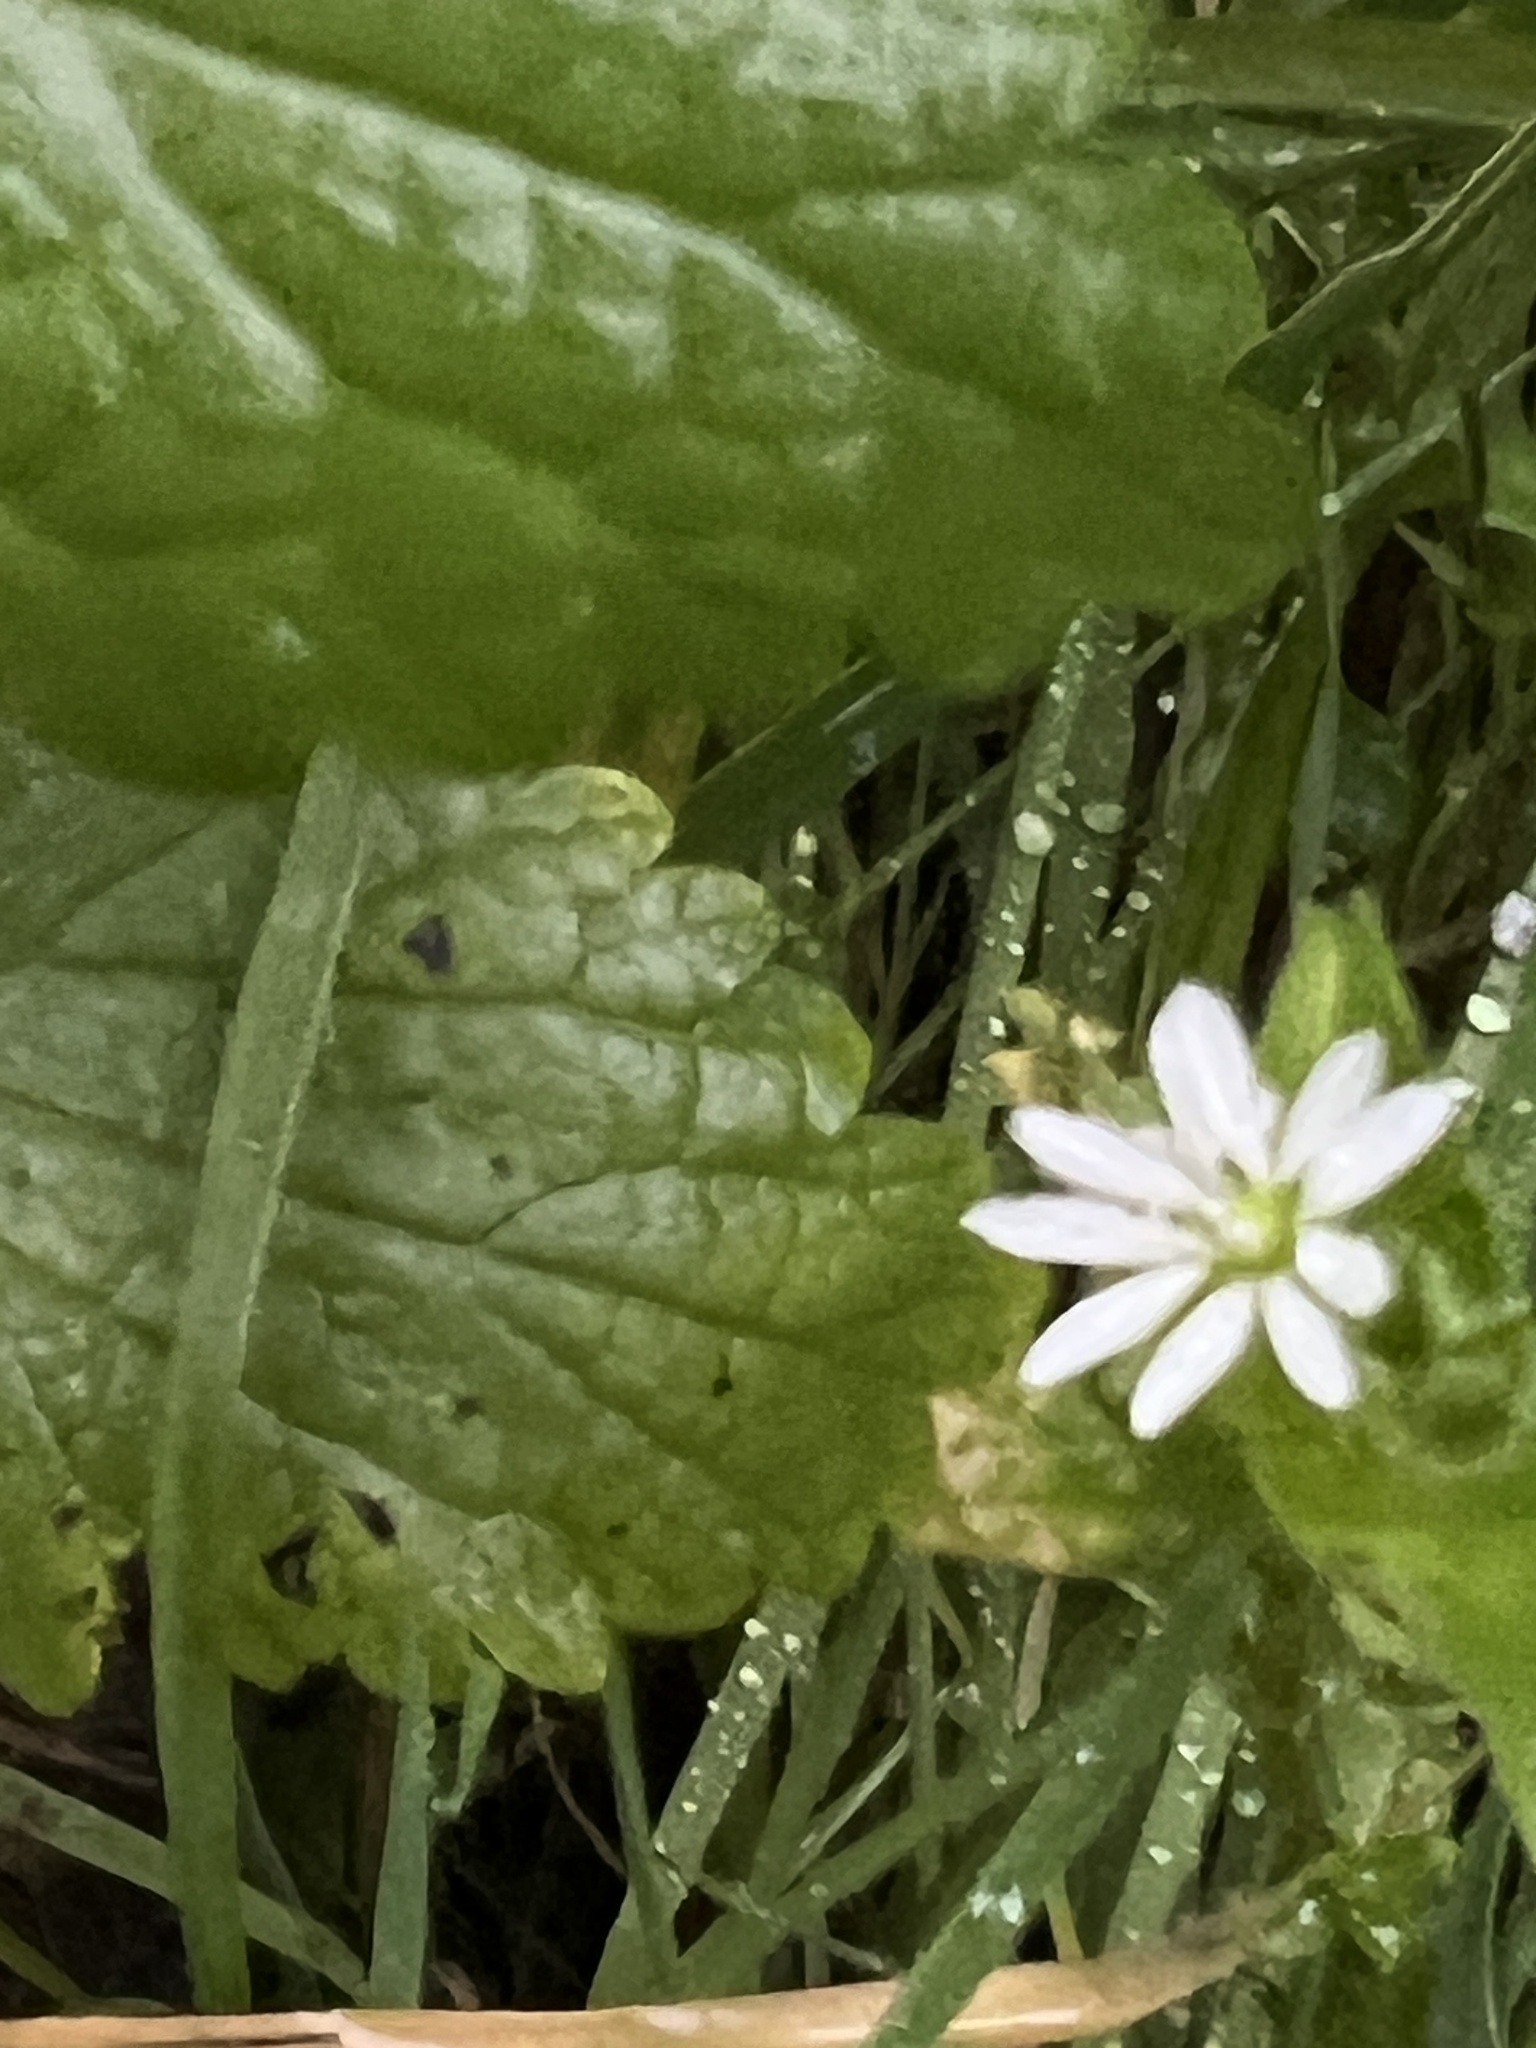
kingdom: Plantae
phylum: Tracheophyta
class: Magnoliopsida
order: Caryophyllales
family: Caryophyllaceae
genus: Stellaria
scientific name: Stellaria aquatica
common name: Water chickweed
